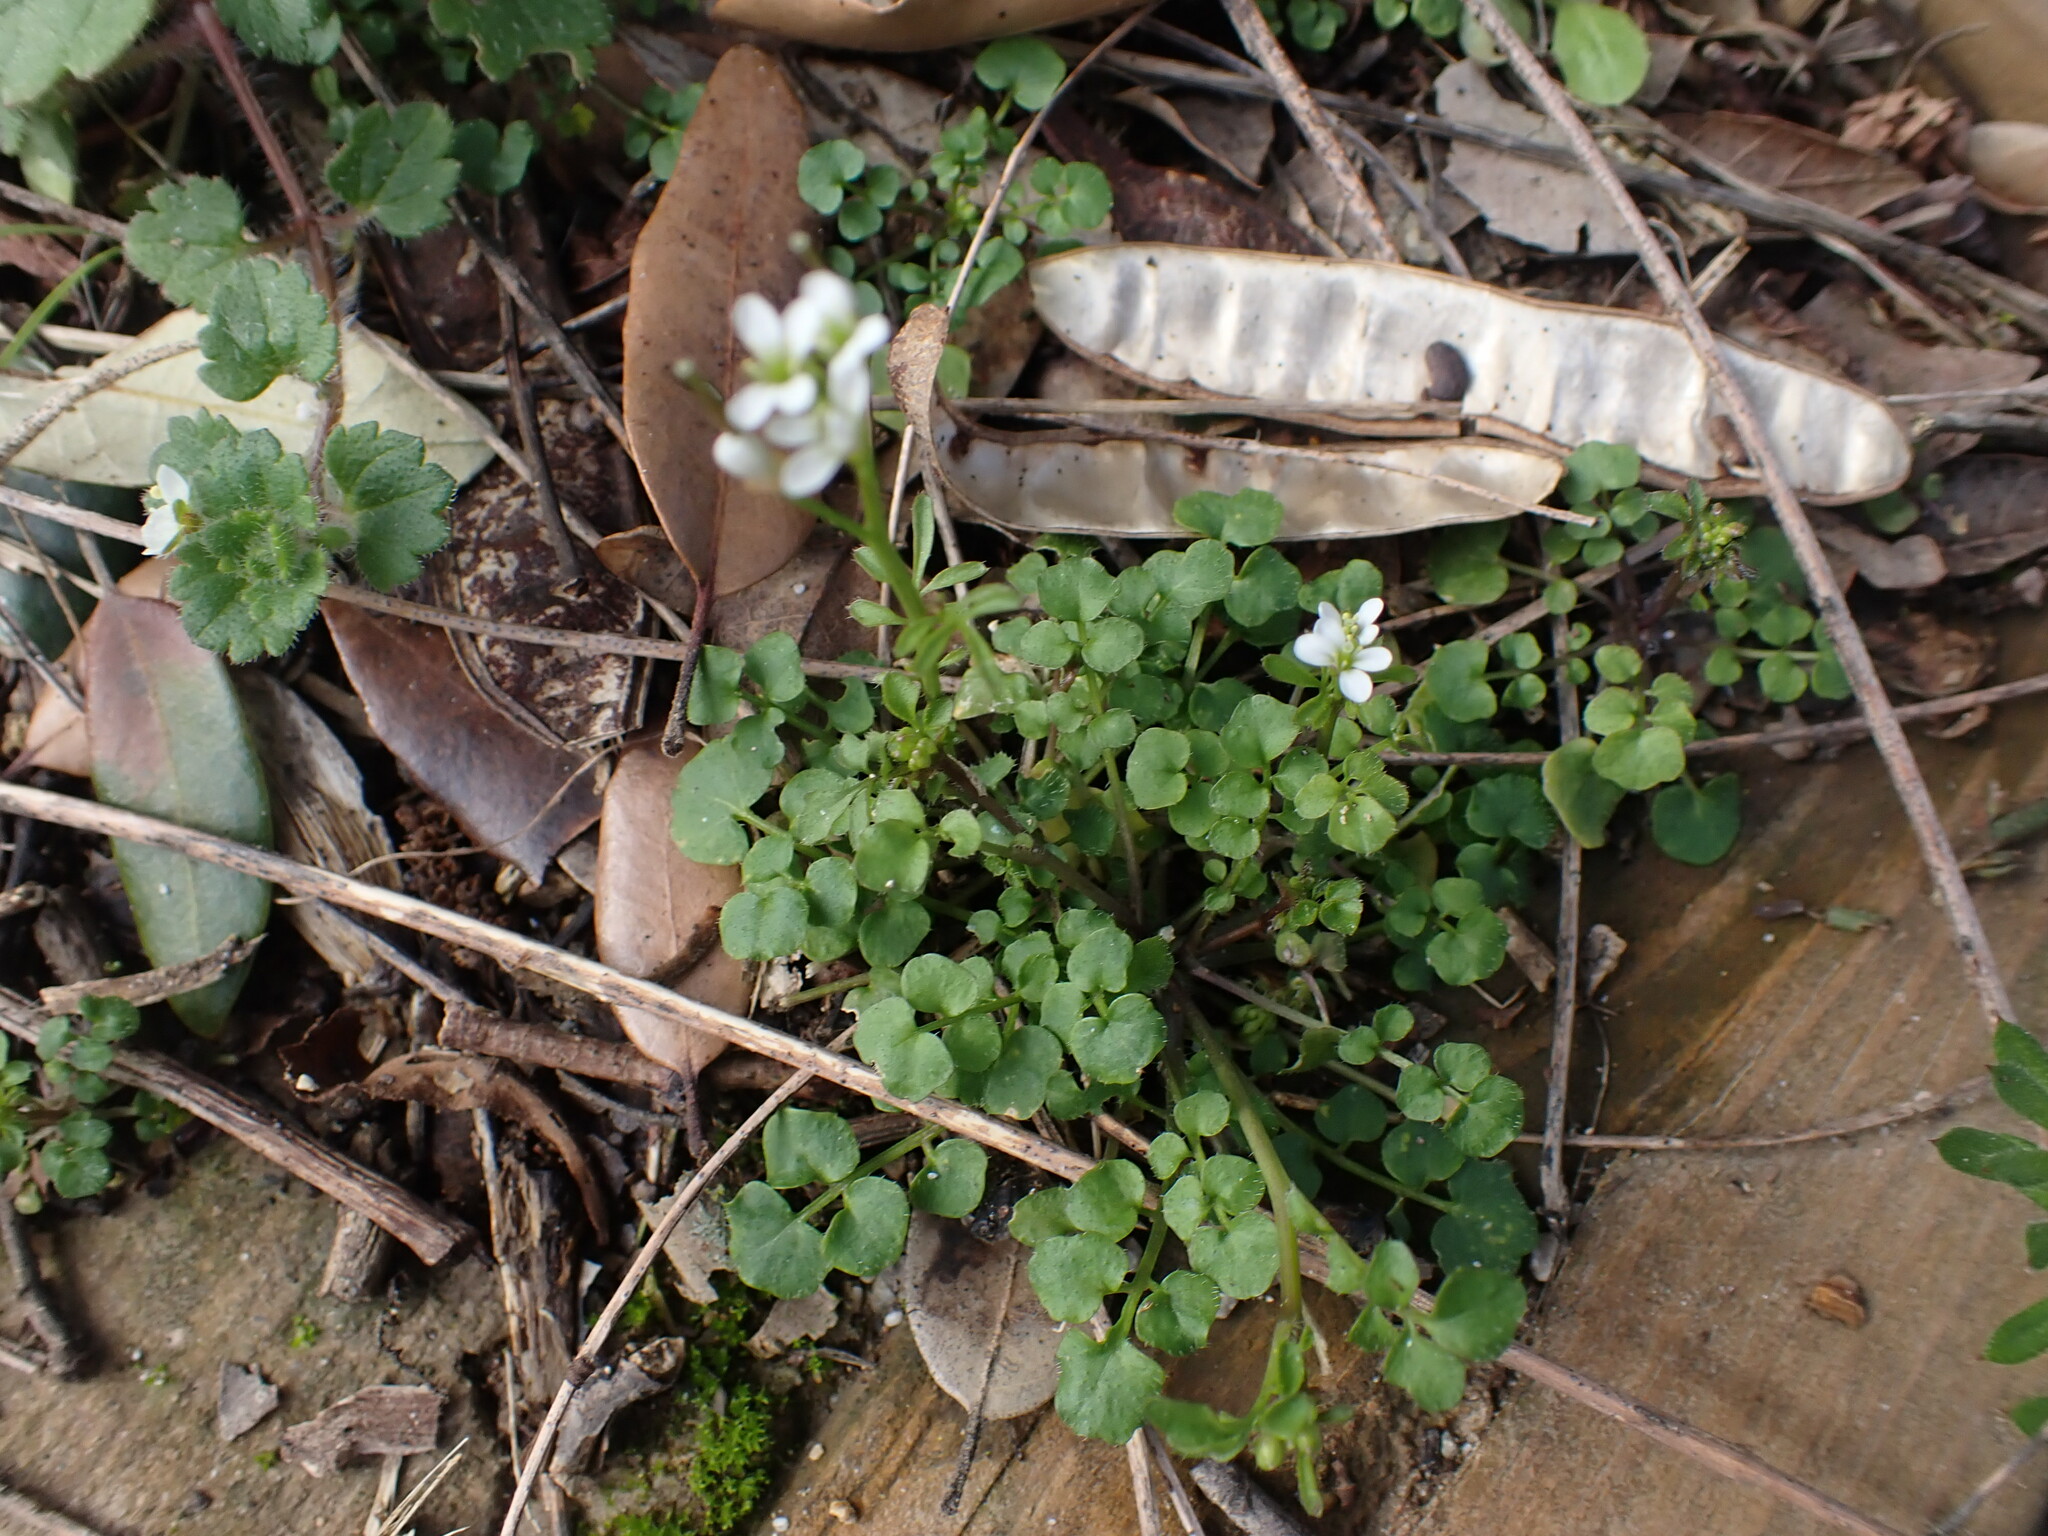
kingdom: Plantae
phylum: Tracheophyta
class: Magnoliopsida
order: Brassicales
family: Brassicaceae
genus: Cardamine
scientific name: Cardamine hirsuta
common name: Hairy bittercress
